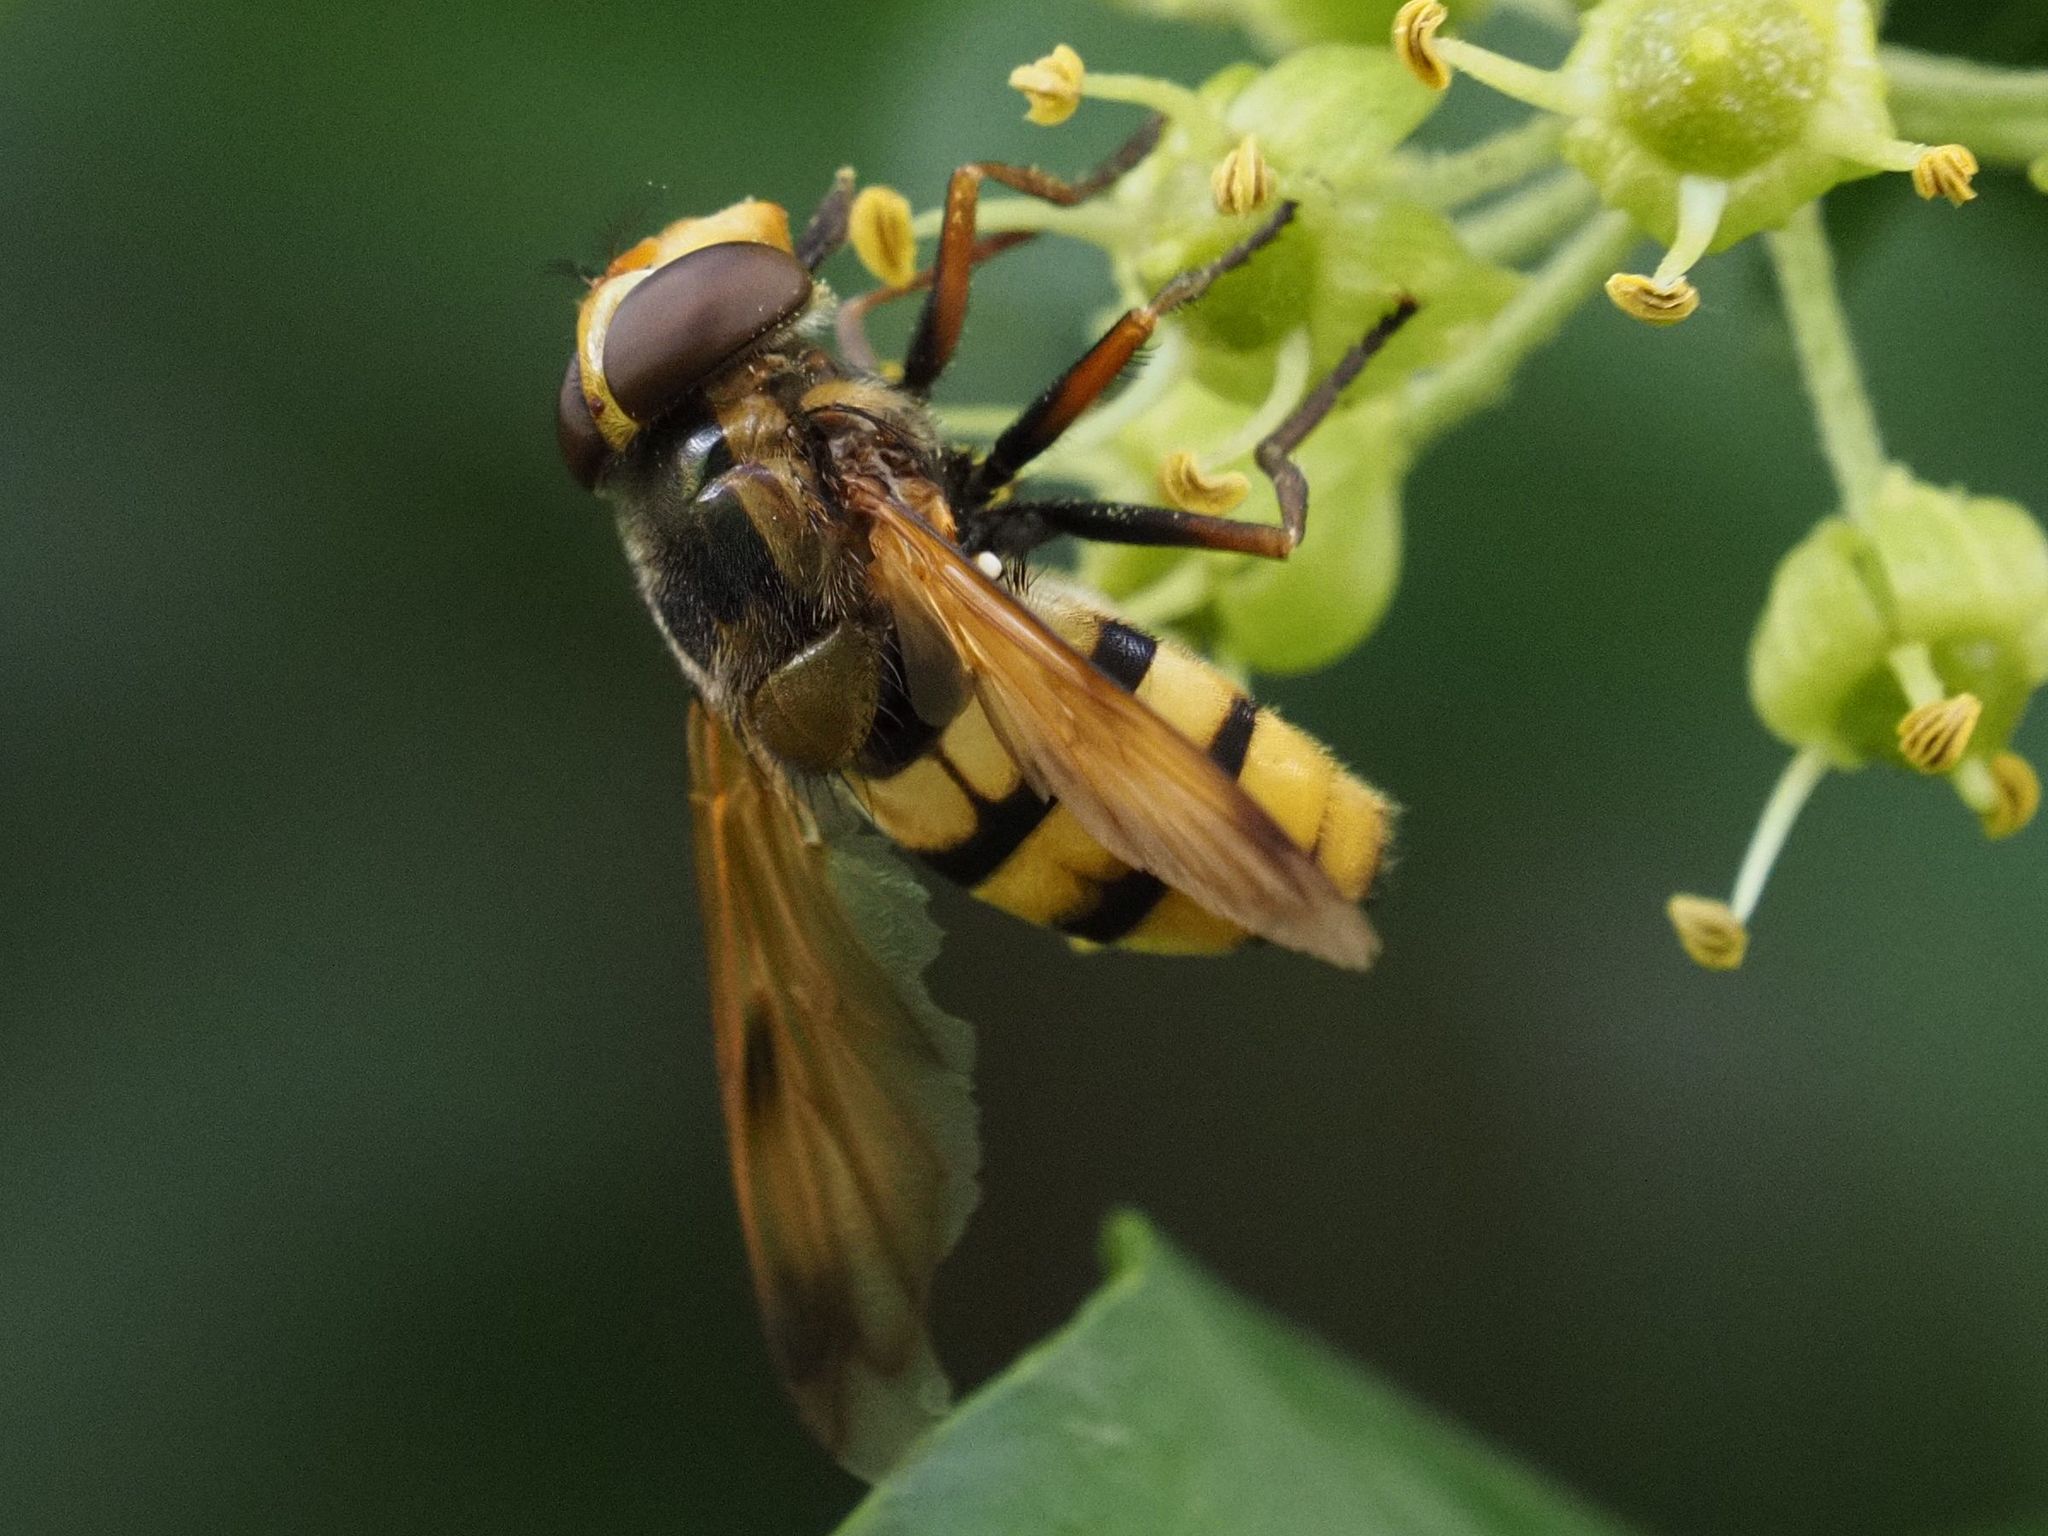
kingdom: Animalia
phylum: Arthropoda
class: Insecta
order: Diptera
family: Syrphidae
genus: Volucella
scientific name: Volucella inanis
